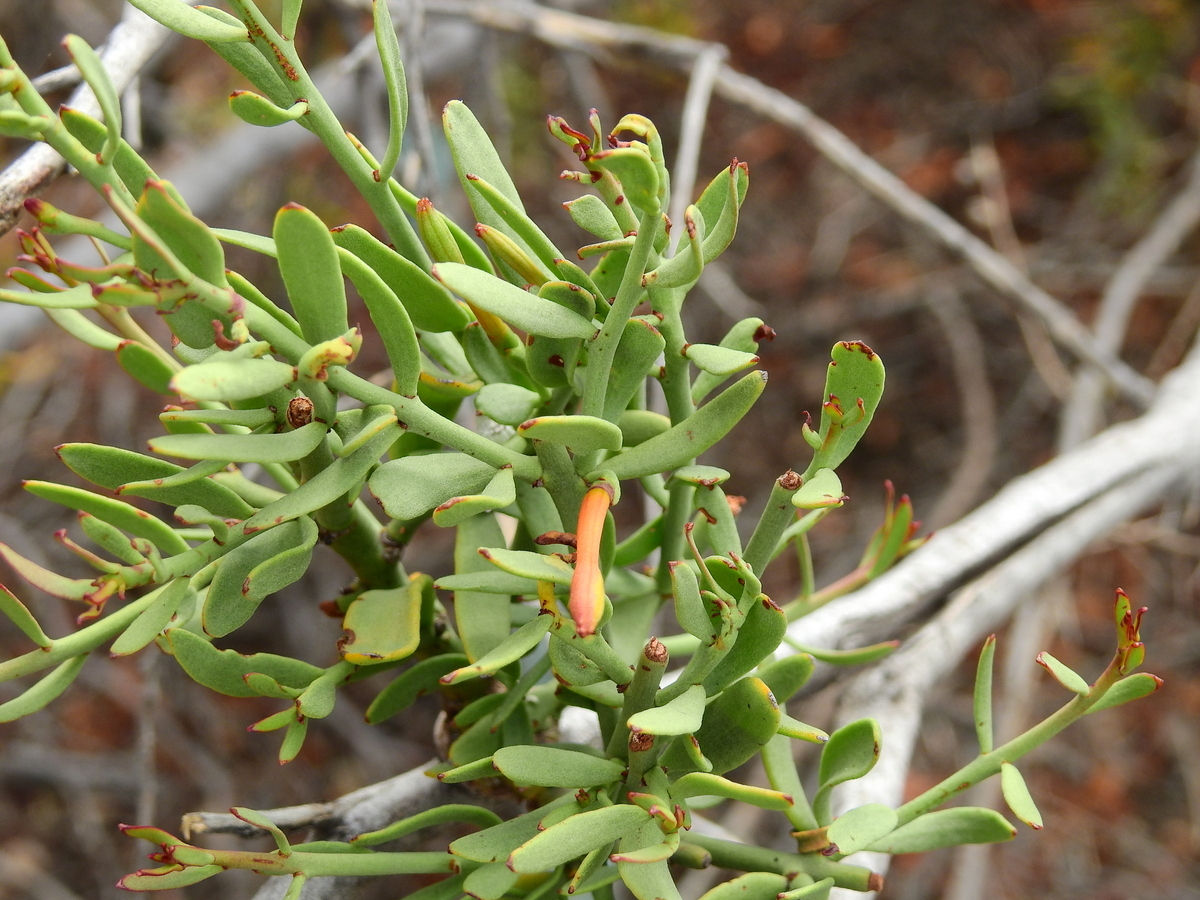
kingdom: Plantae
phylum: Tracheophyta
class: Magnoliopsida
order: Santalales
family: Loranthaceae
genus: Ligaria
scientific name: Ligaria cuneifolia
